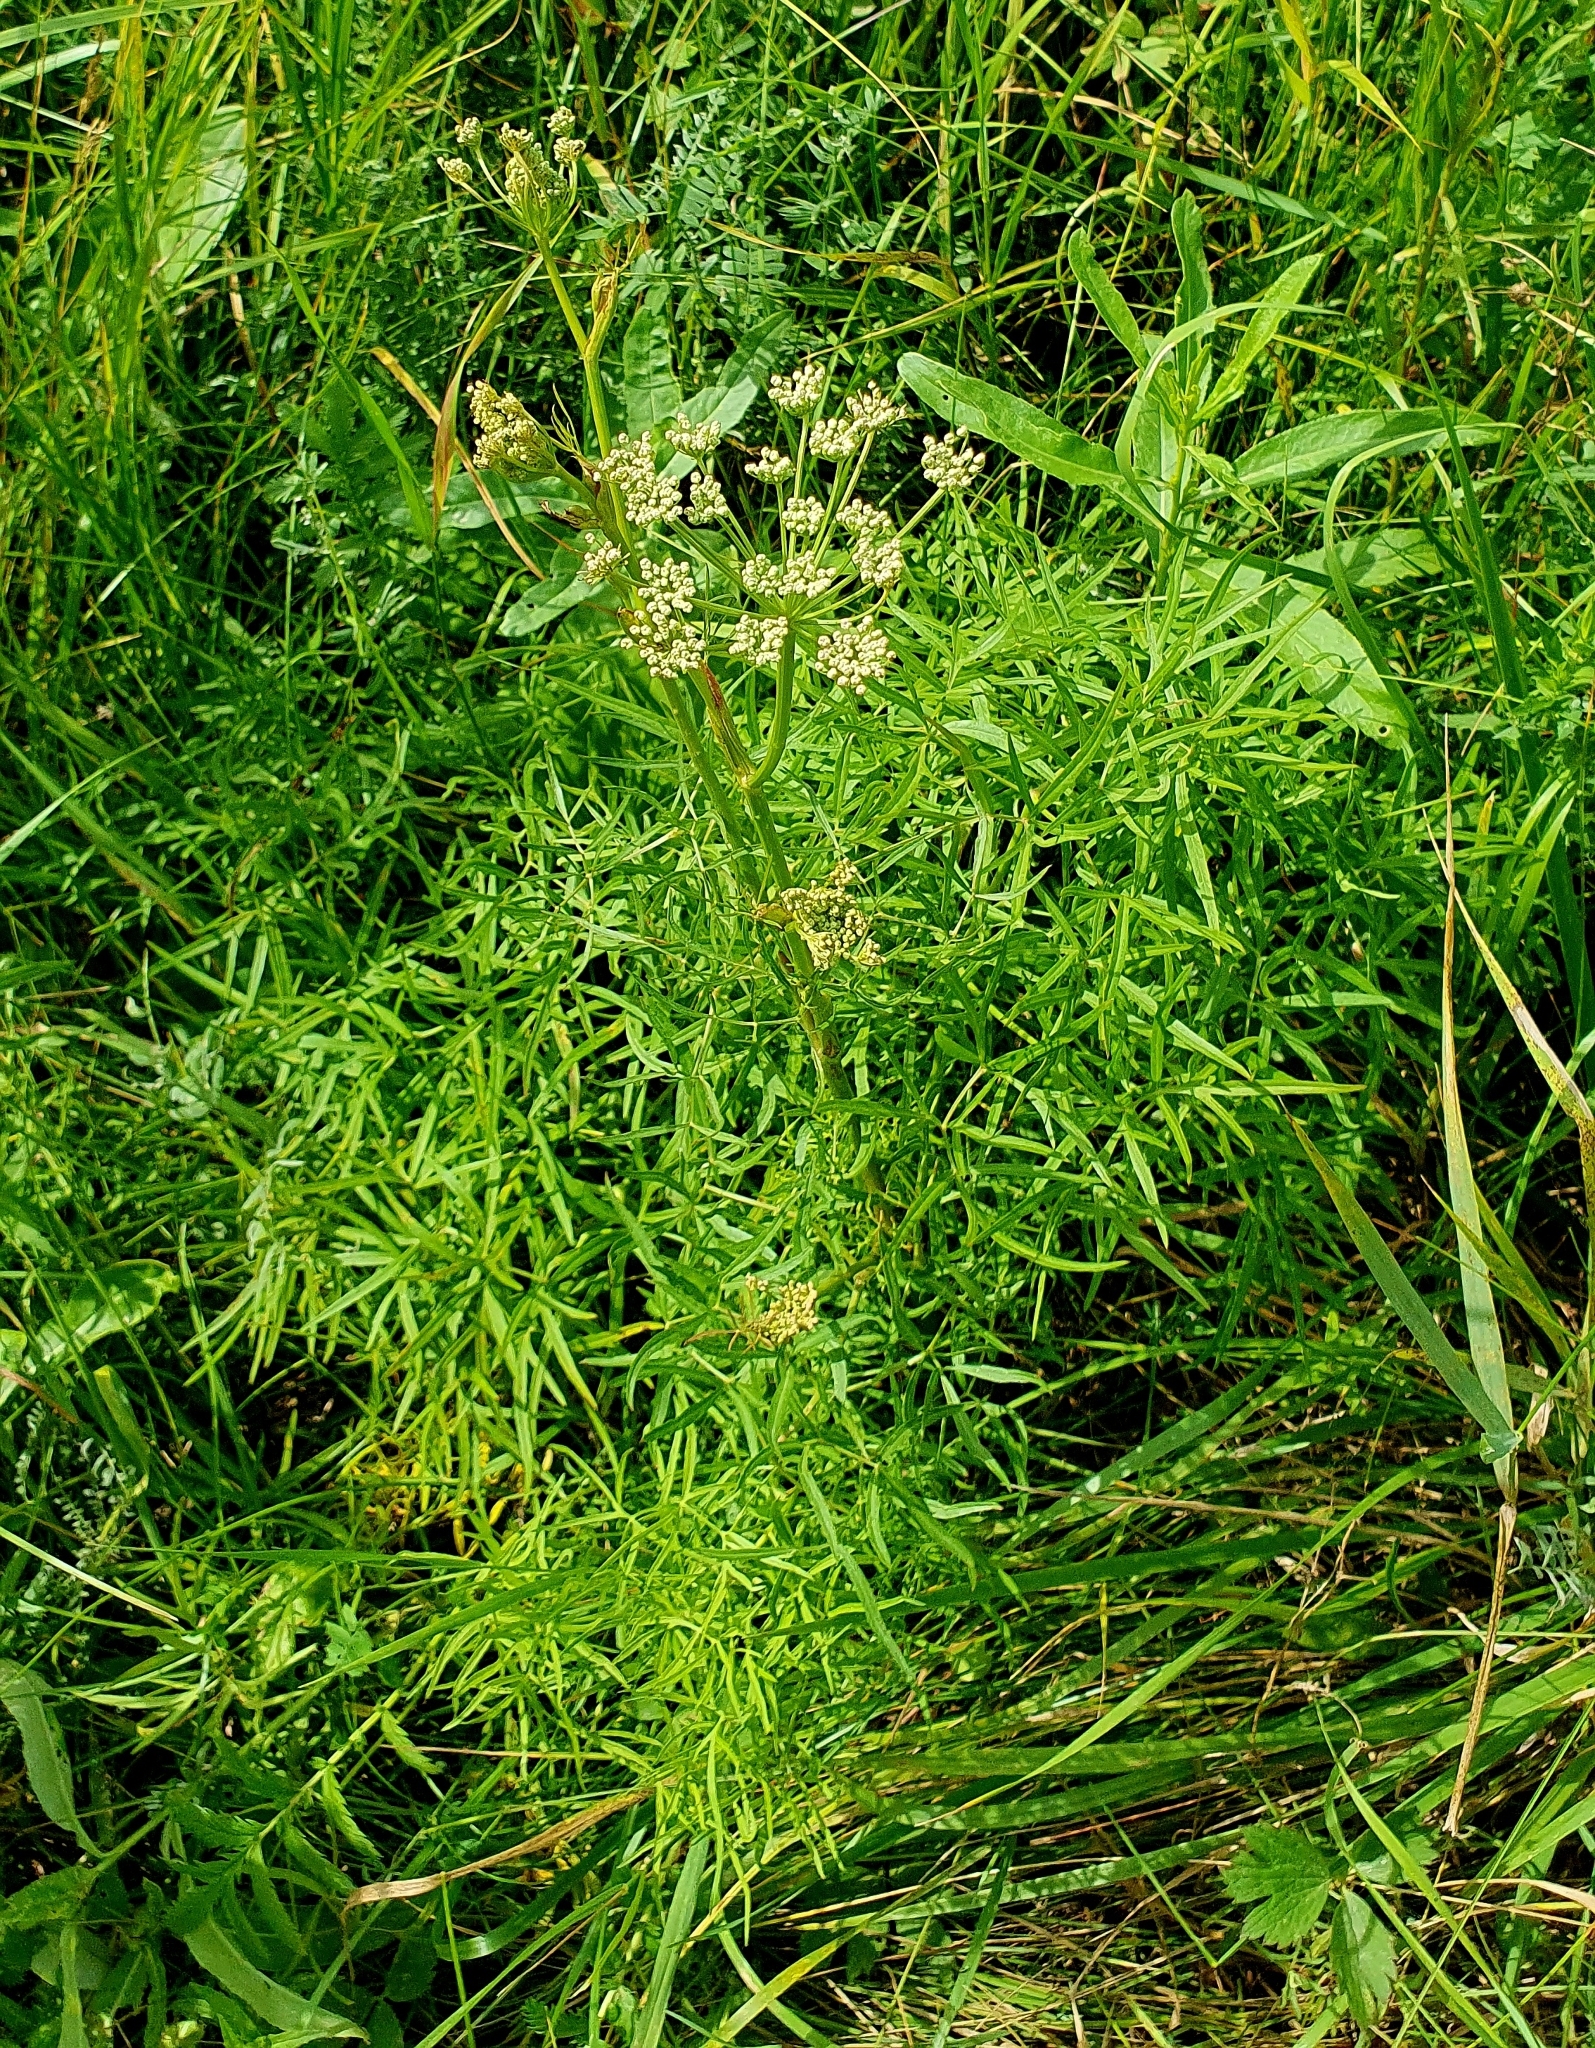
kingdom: Plantae
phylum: Tracheophyta
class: Magnoliopsida
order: Apiales
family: Apiaceae
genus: Cenolophium
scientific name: Cenolophium fischeri
